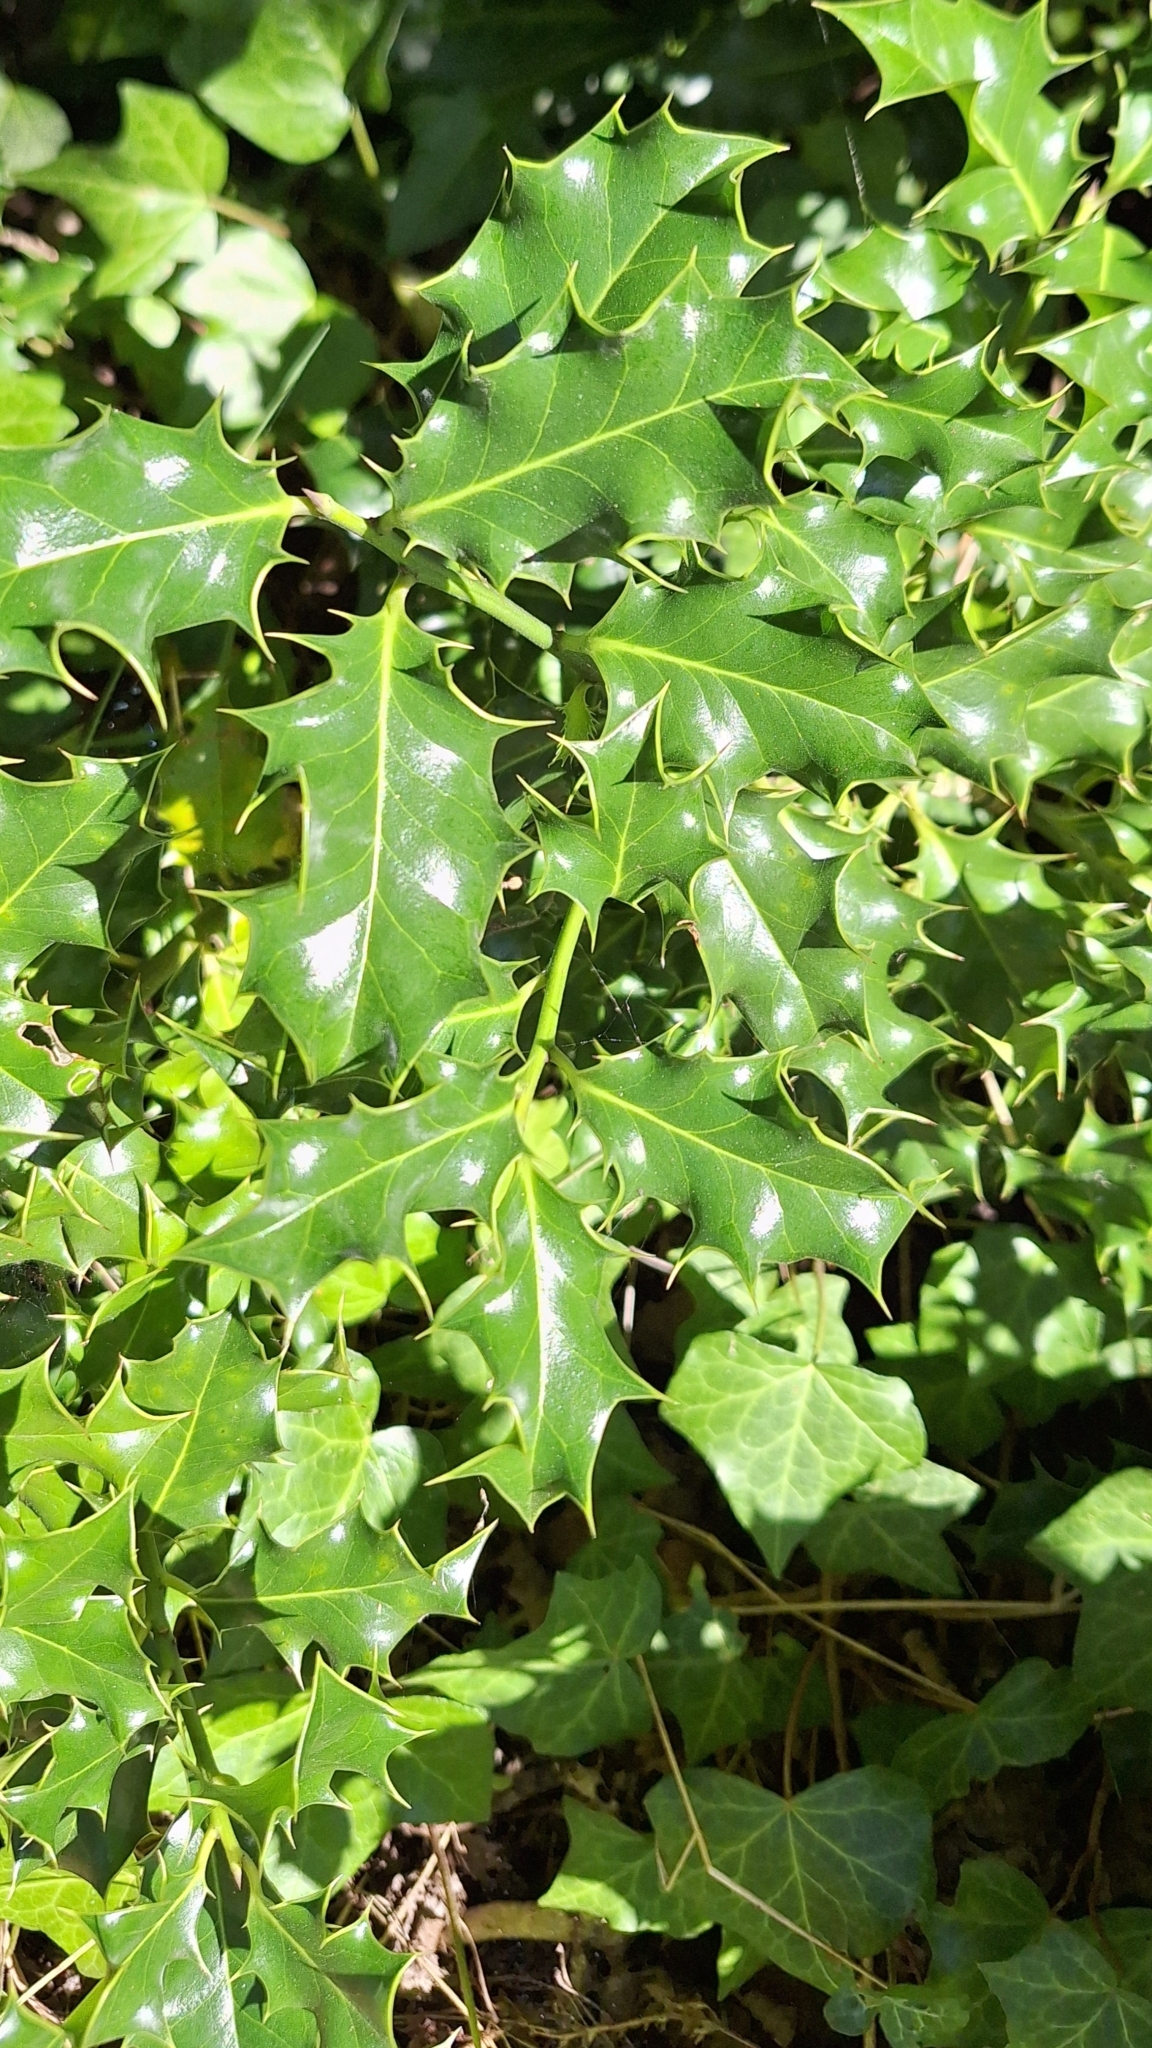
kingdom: Plantae
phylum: Tracheophyta
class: Magnoliopsida
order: Aquifoliales
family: Aquifoliaceae
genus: Ilex
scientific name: Ilex aquifolium
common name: English holly
